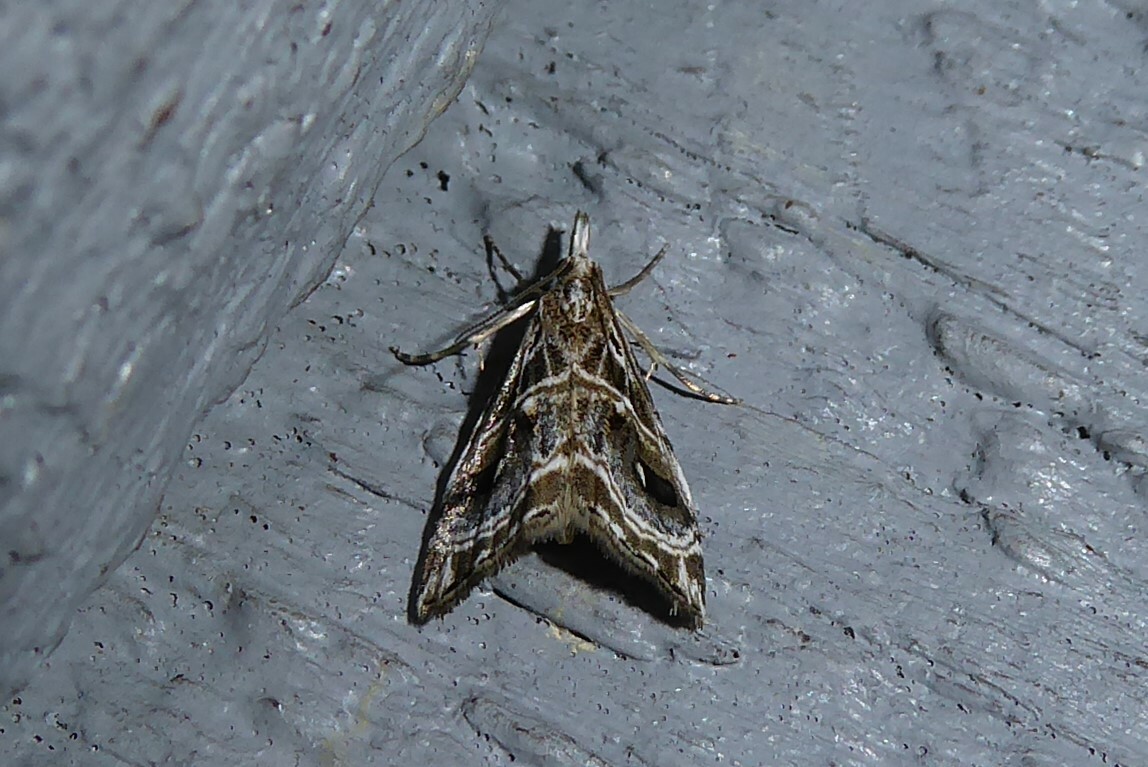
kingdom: Animalia
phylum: Arthropoda
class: Insecta
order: Lepidoptera
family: Crambidae
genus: Gadira
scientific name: Gadira acerella
